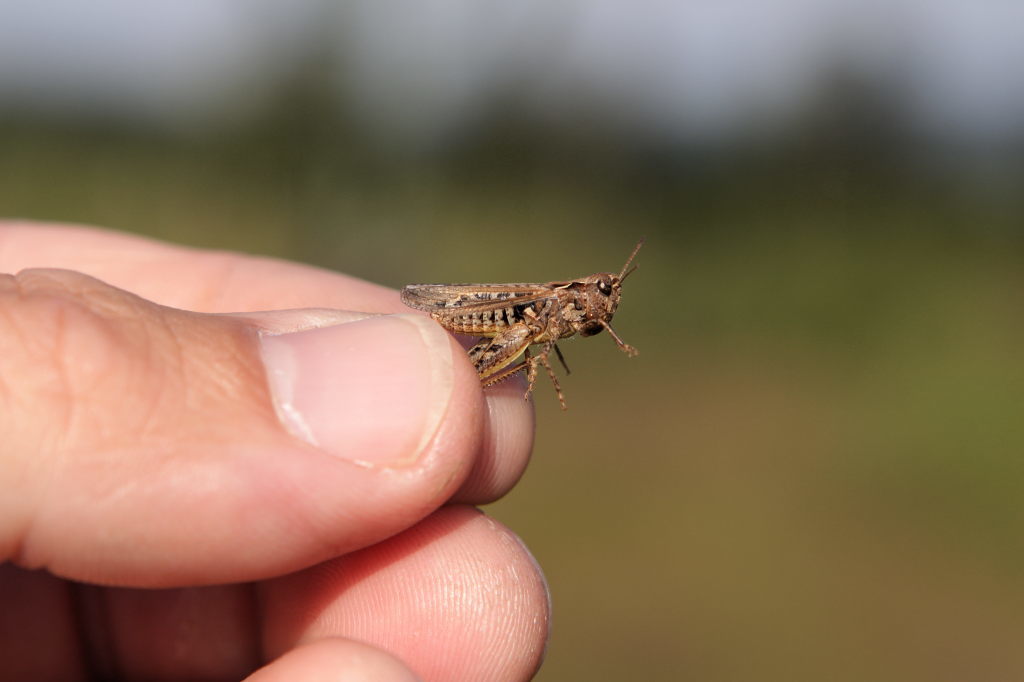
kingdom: Animalia
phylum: Arthropoda
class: Insecta
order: Orthoptera
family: Acrididae
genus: Myrmeleotettix
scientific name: Myrmeleotettix maculatus
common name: Mottled grasshopper
